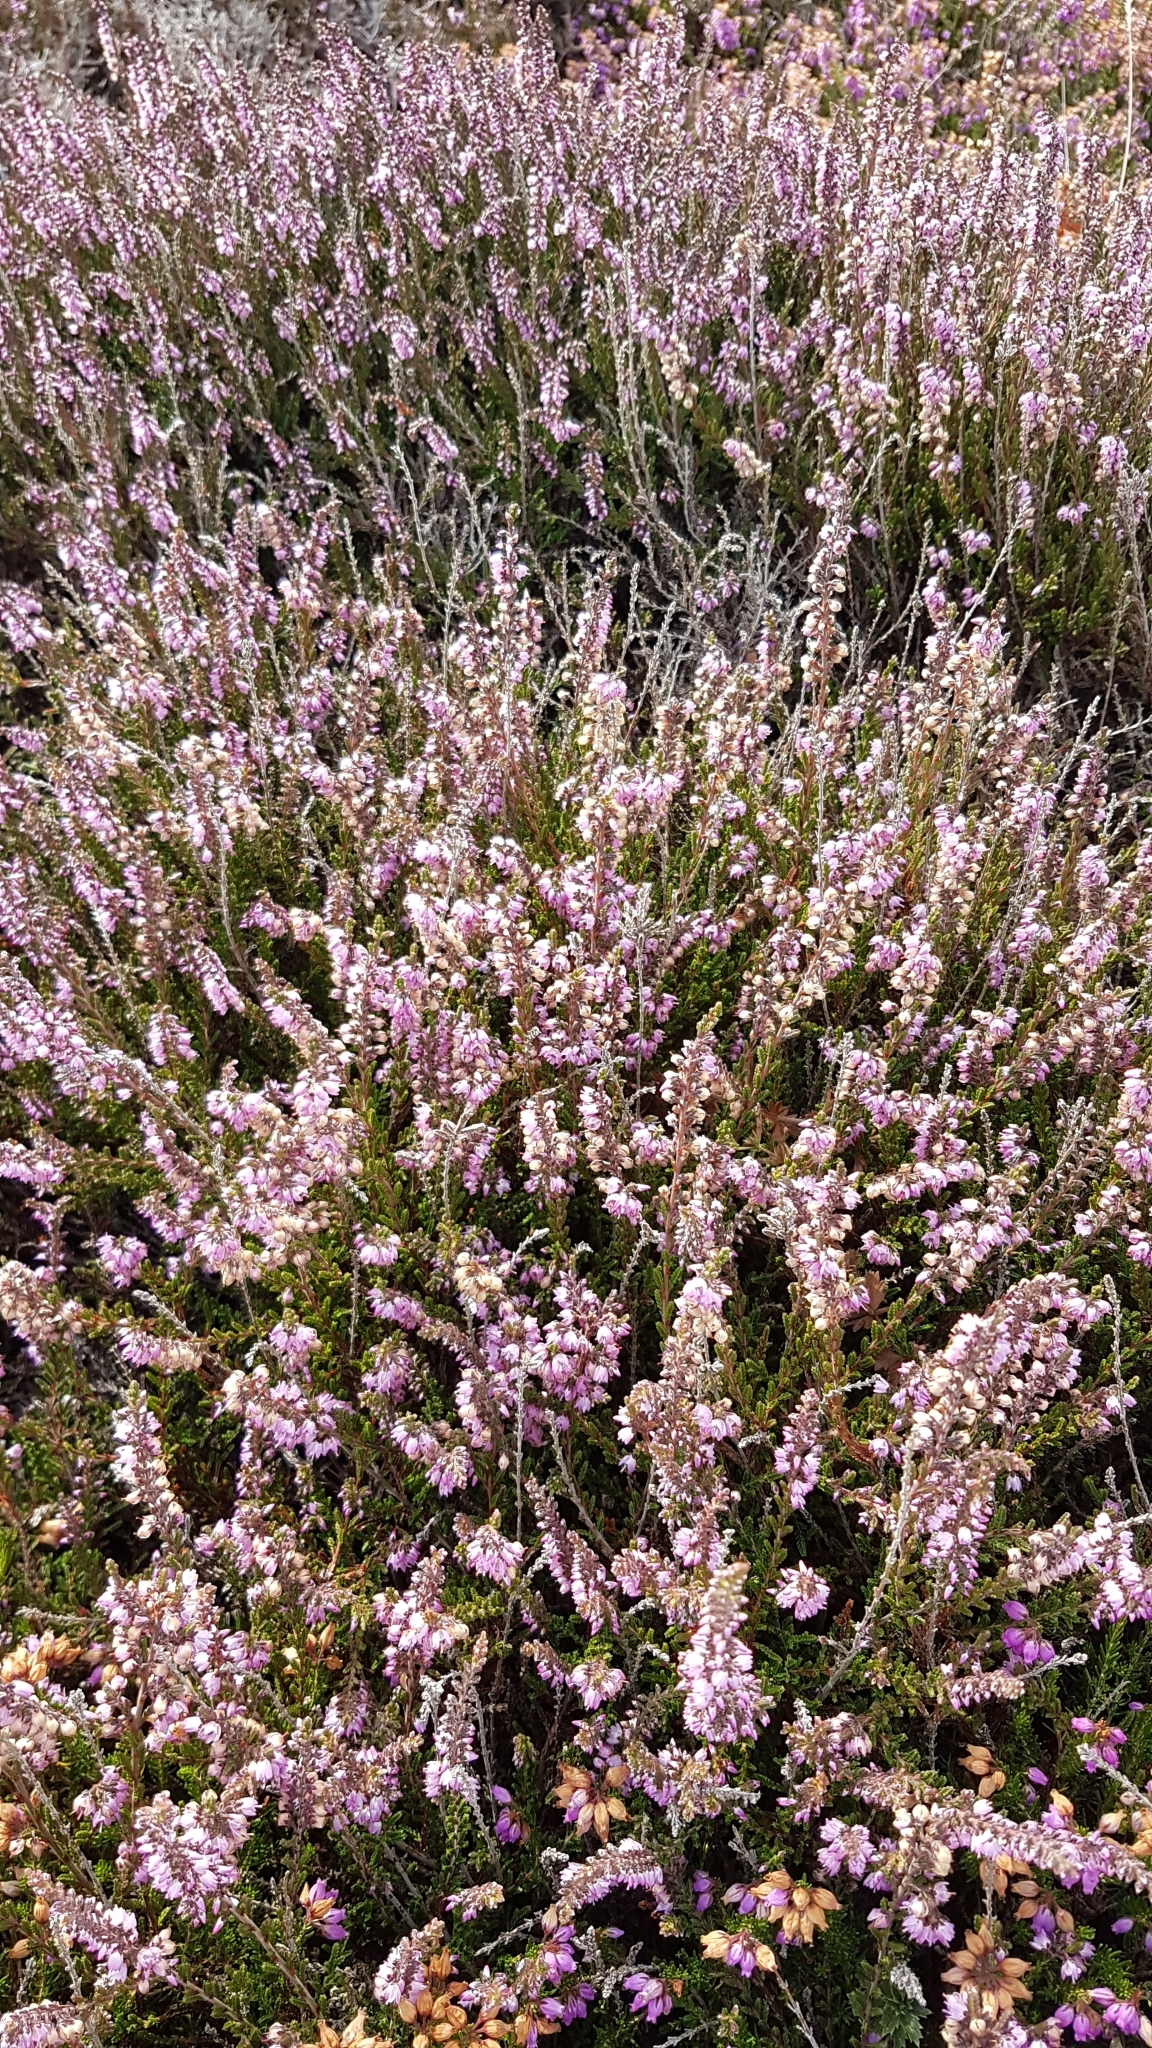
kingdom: Plantae
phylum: Tracheophyta
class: Magnoliopsida
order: Ericales
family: Ericaceae
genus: Calluna
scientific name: Calluna vulgaris
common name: Heather
